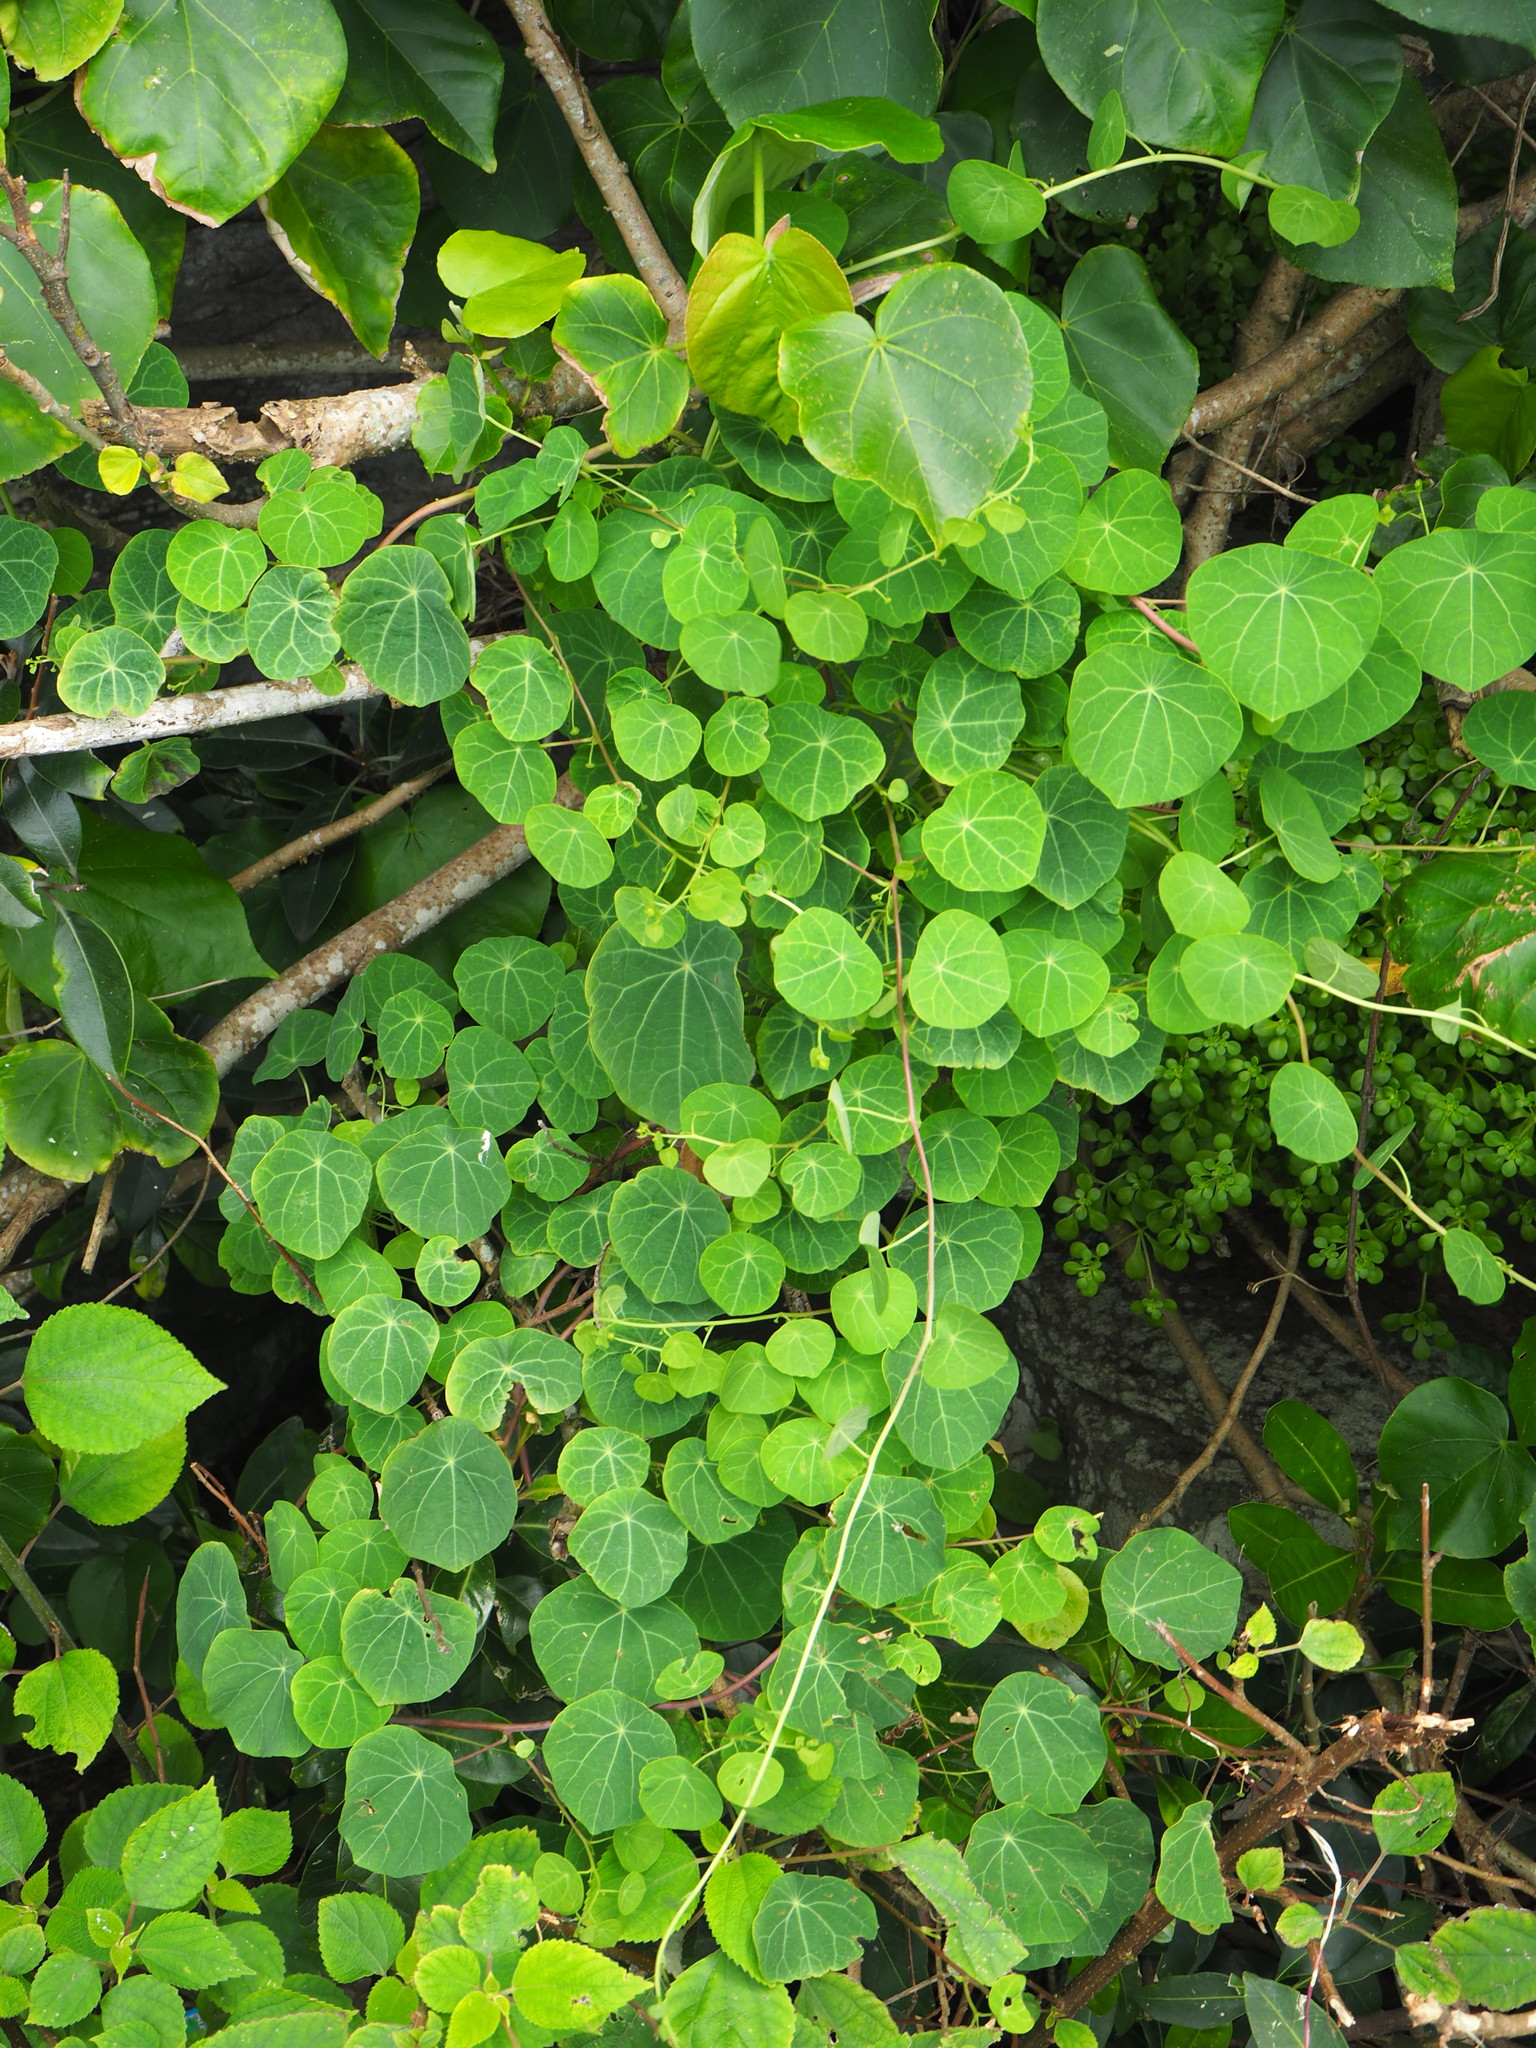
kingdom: Plantae
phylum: Tracheophyta
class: Magnoliopsida
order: Ranunculales
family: Menispermaceae
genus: Stephania
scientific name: Stephania cephalantha
